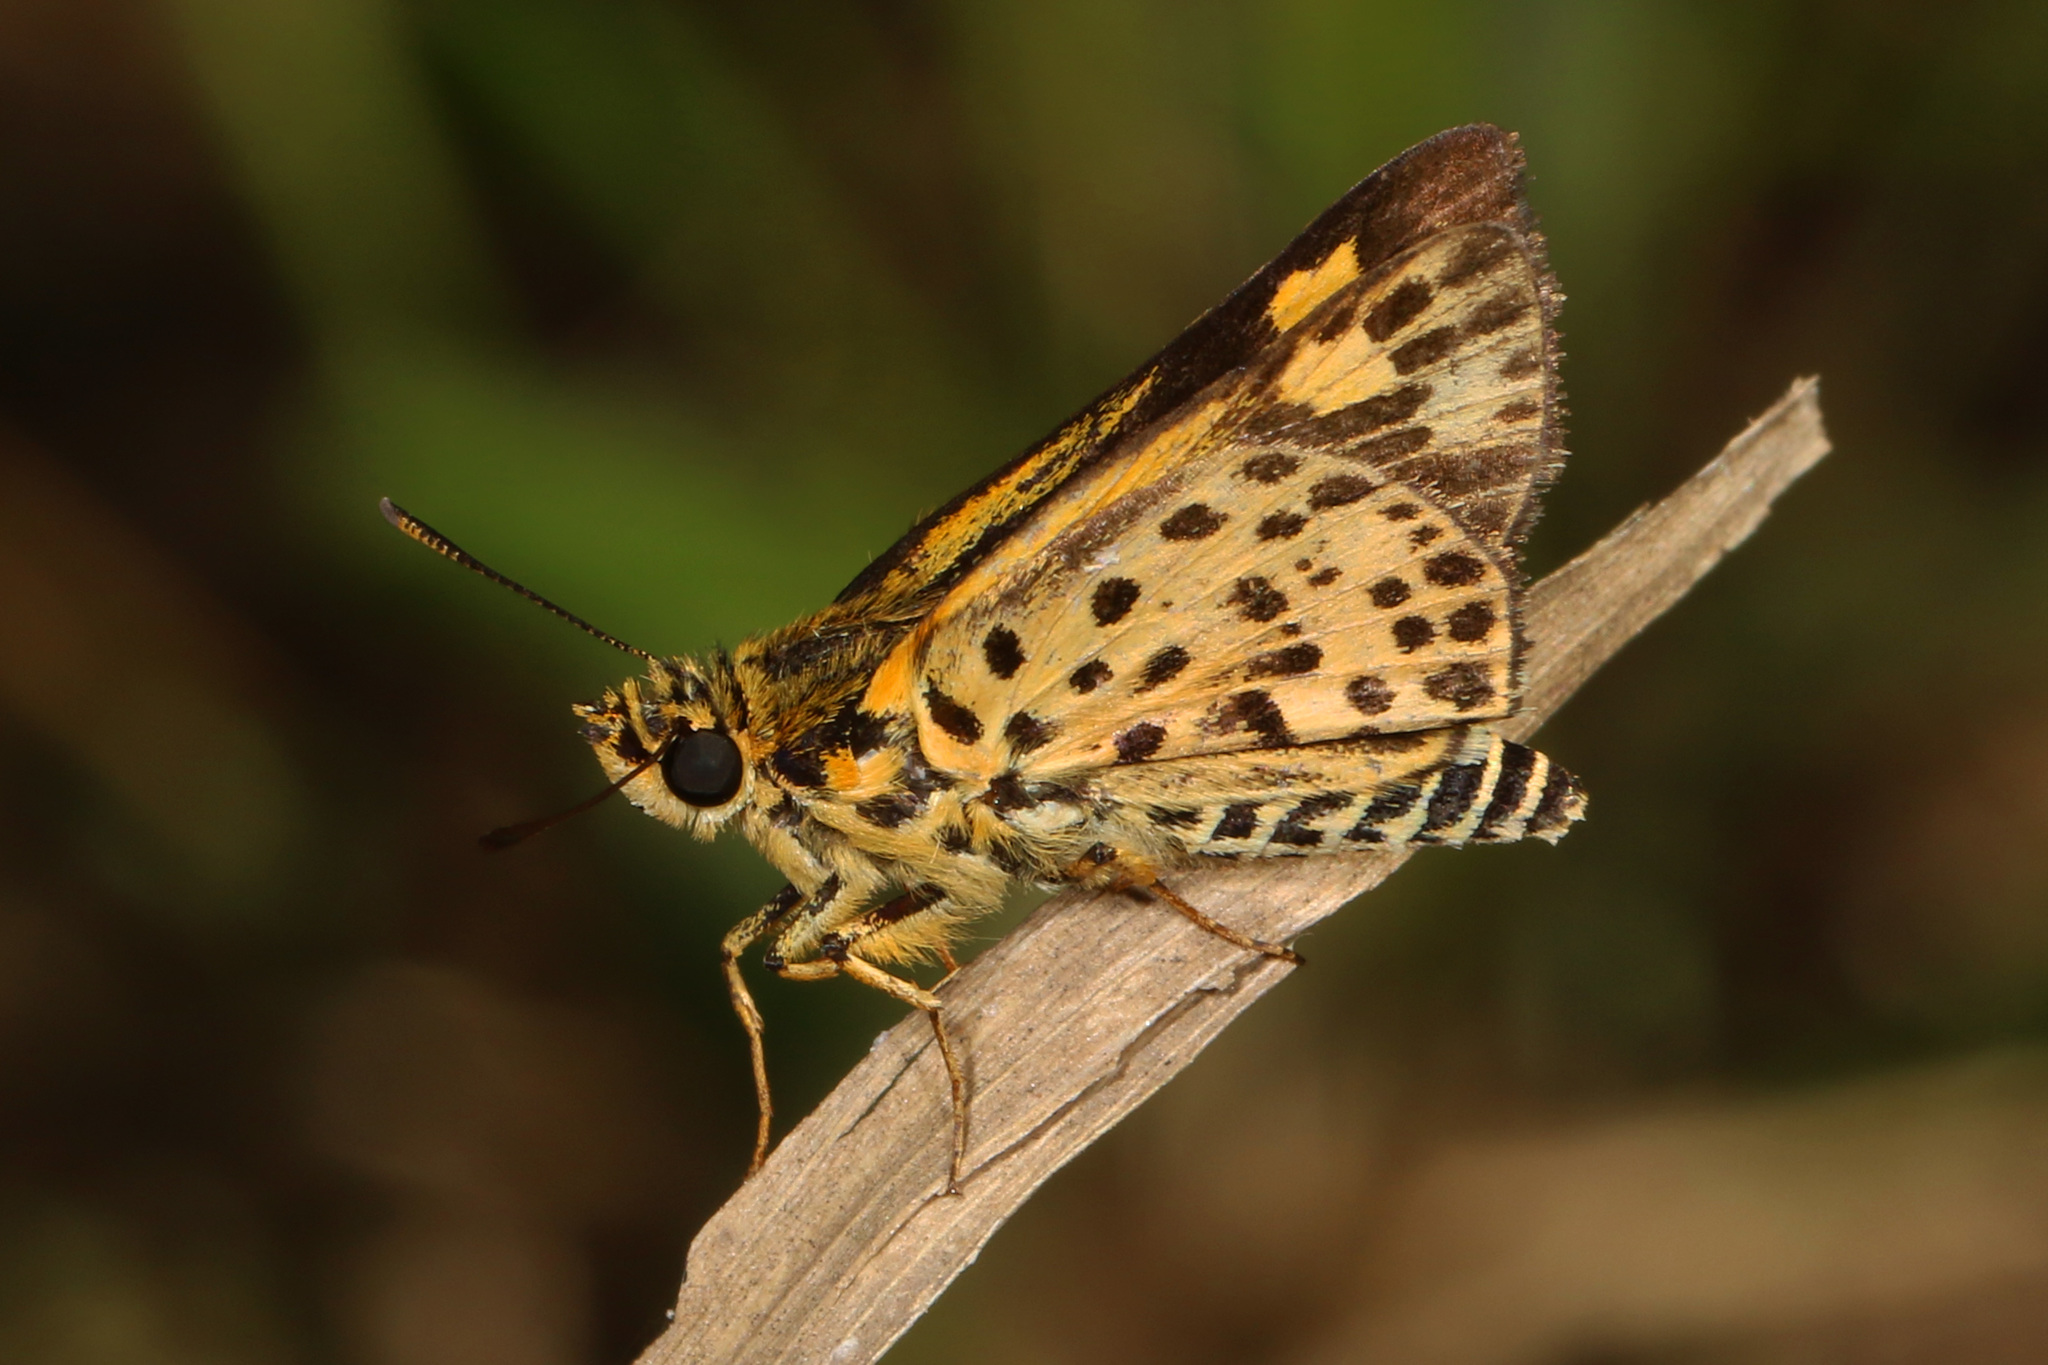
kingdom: Animalia
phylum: Arthropoda
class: Insecta
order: Lepidoptera
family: Hesperiidae
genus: Ampittia
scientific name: Ampittia capenas
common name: Riverine ranger
